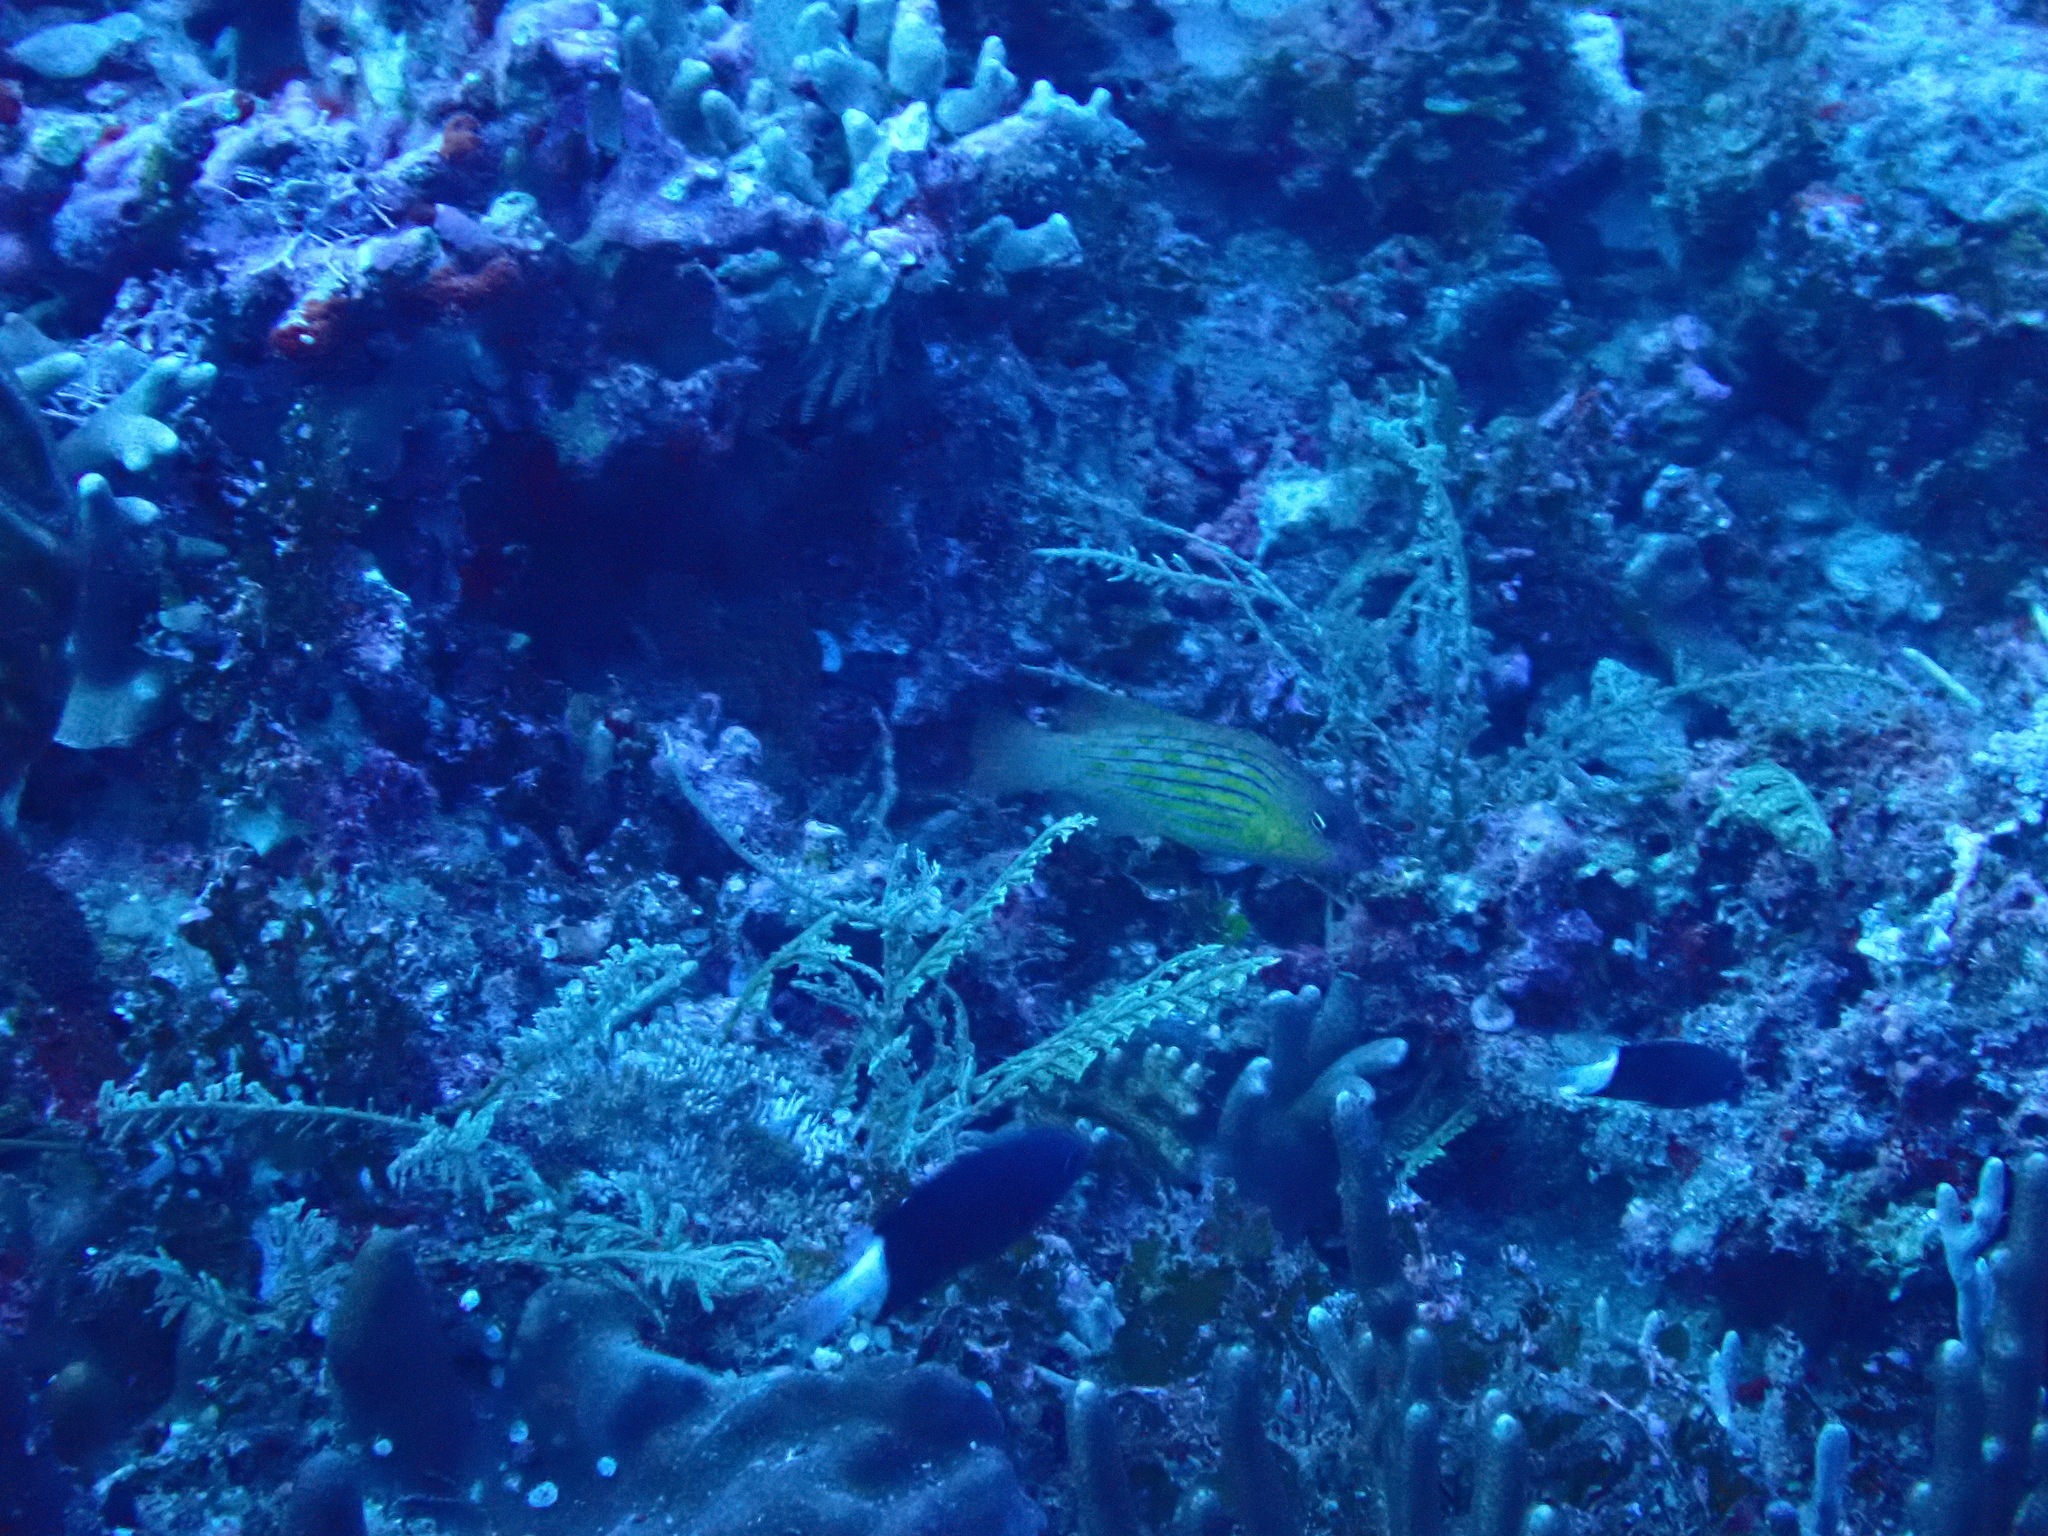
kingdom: Animalia
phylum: Chordata
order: Perciformes
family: Labridae
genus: Pseudocheilinus
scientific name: Pseudocheilinus octotaenia
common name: Eightline wrasse
